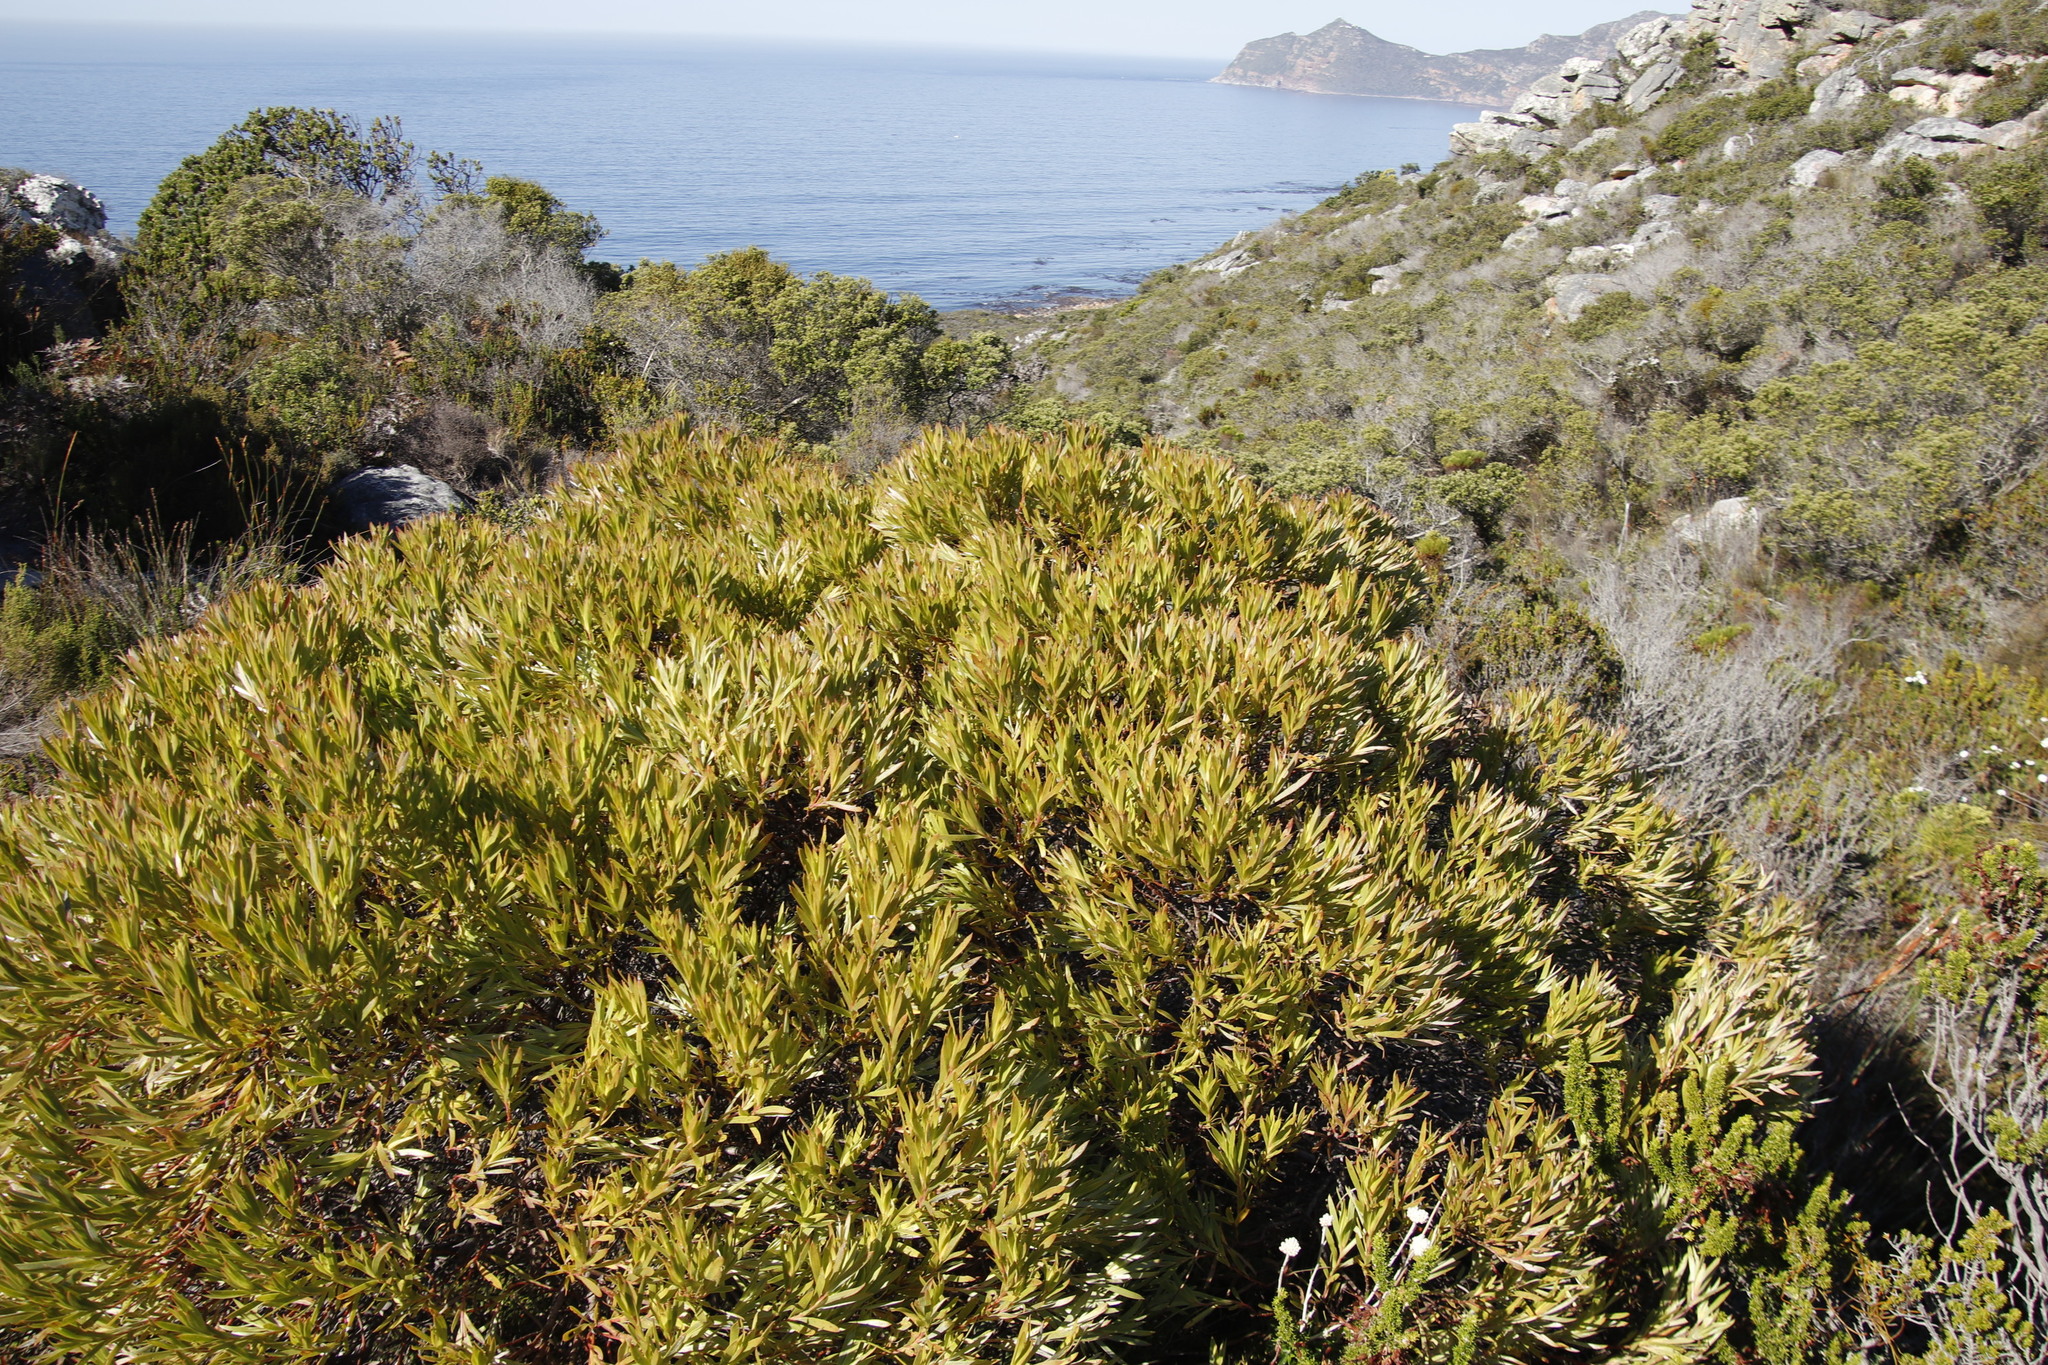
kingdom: Plantae
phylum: Tracheophyta
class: Magnoliopsida
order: Proteales
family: Proteaceae
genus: Leucadendron
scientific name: Leucadendron xanthoconus
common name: Sickle-leaf conebush
